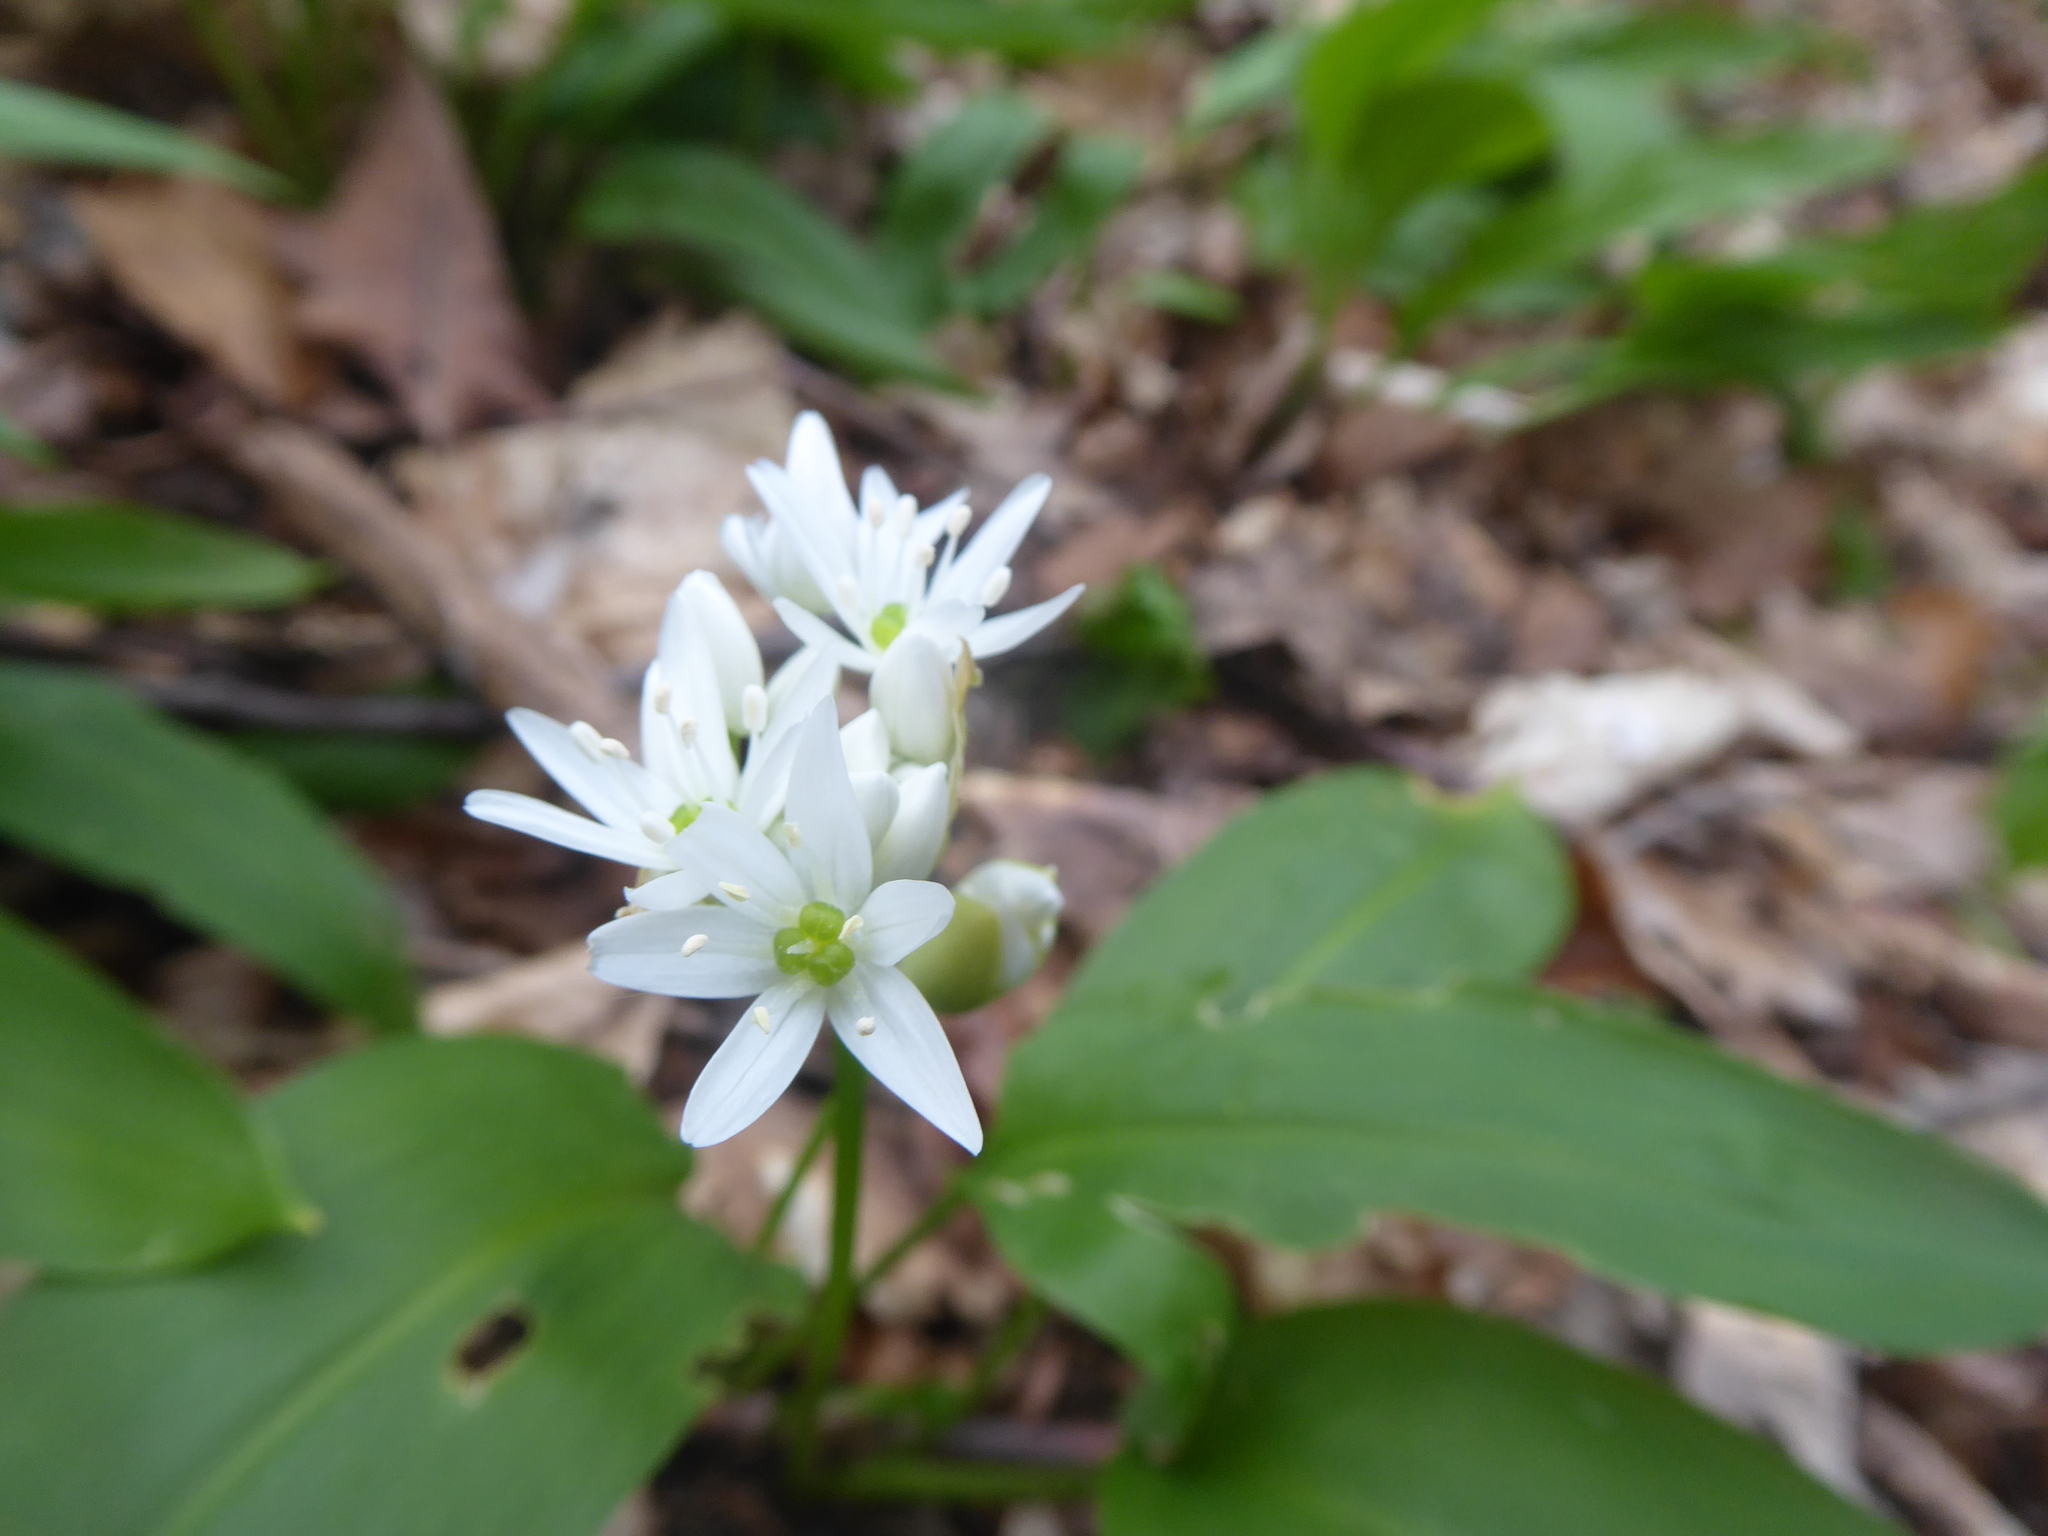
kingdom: Plantae
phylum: Tracheophyta
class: Liliopsida
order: Asparagales
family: Amaryllidaceae
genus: Allium
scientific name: Allium ursinum
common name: Ramsons
